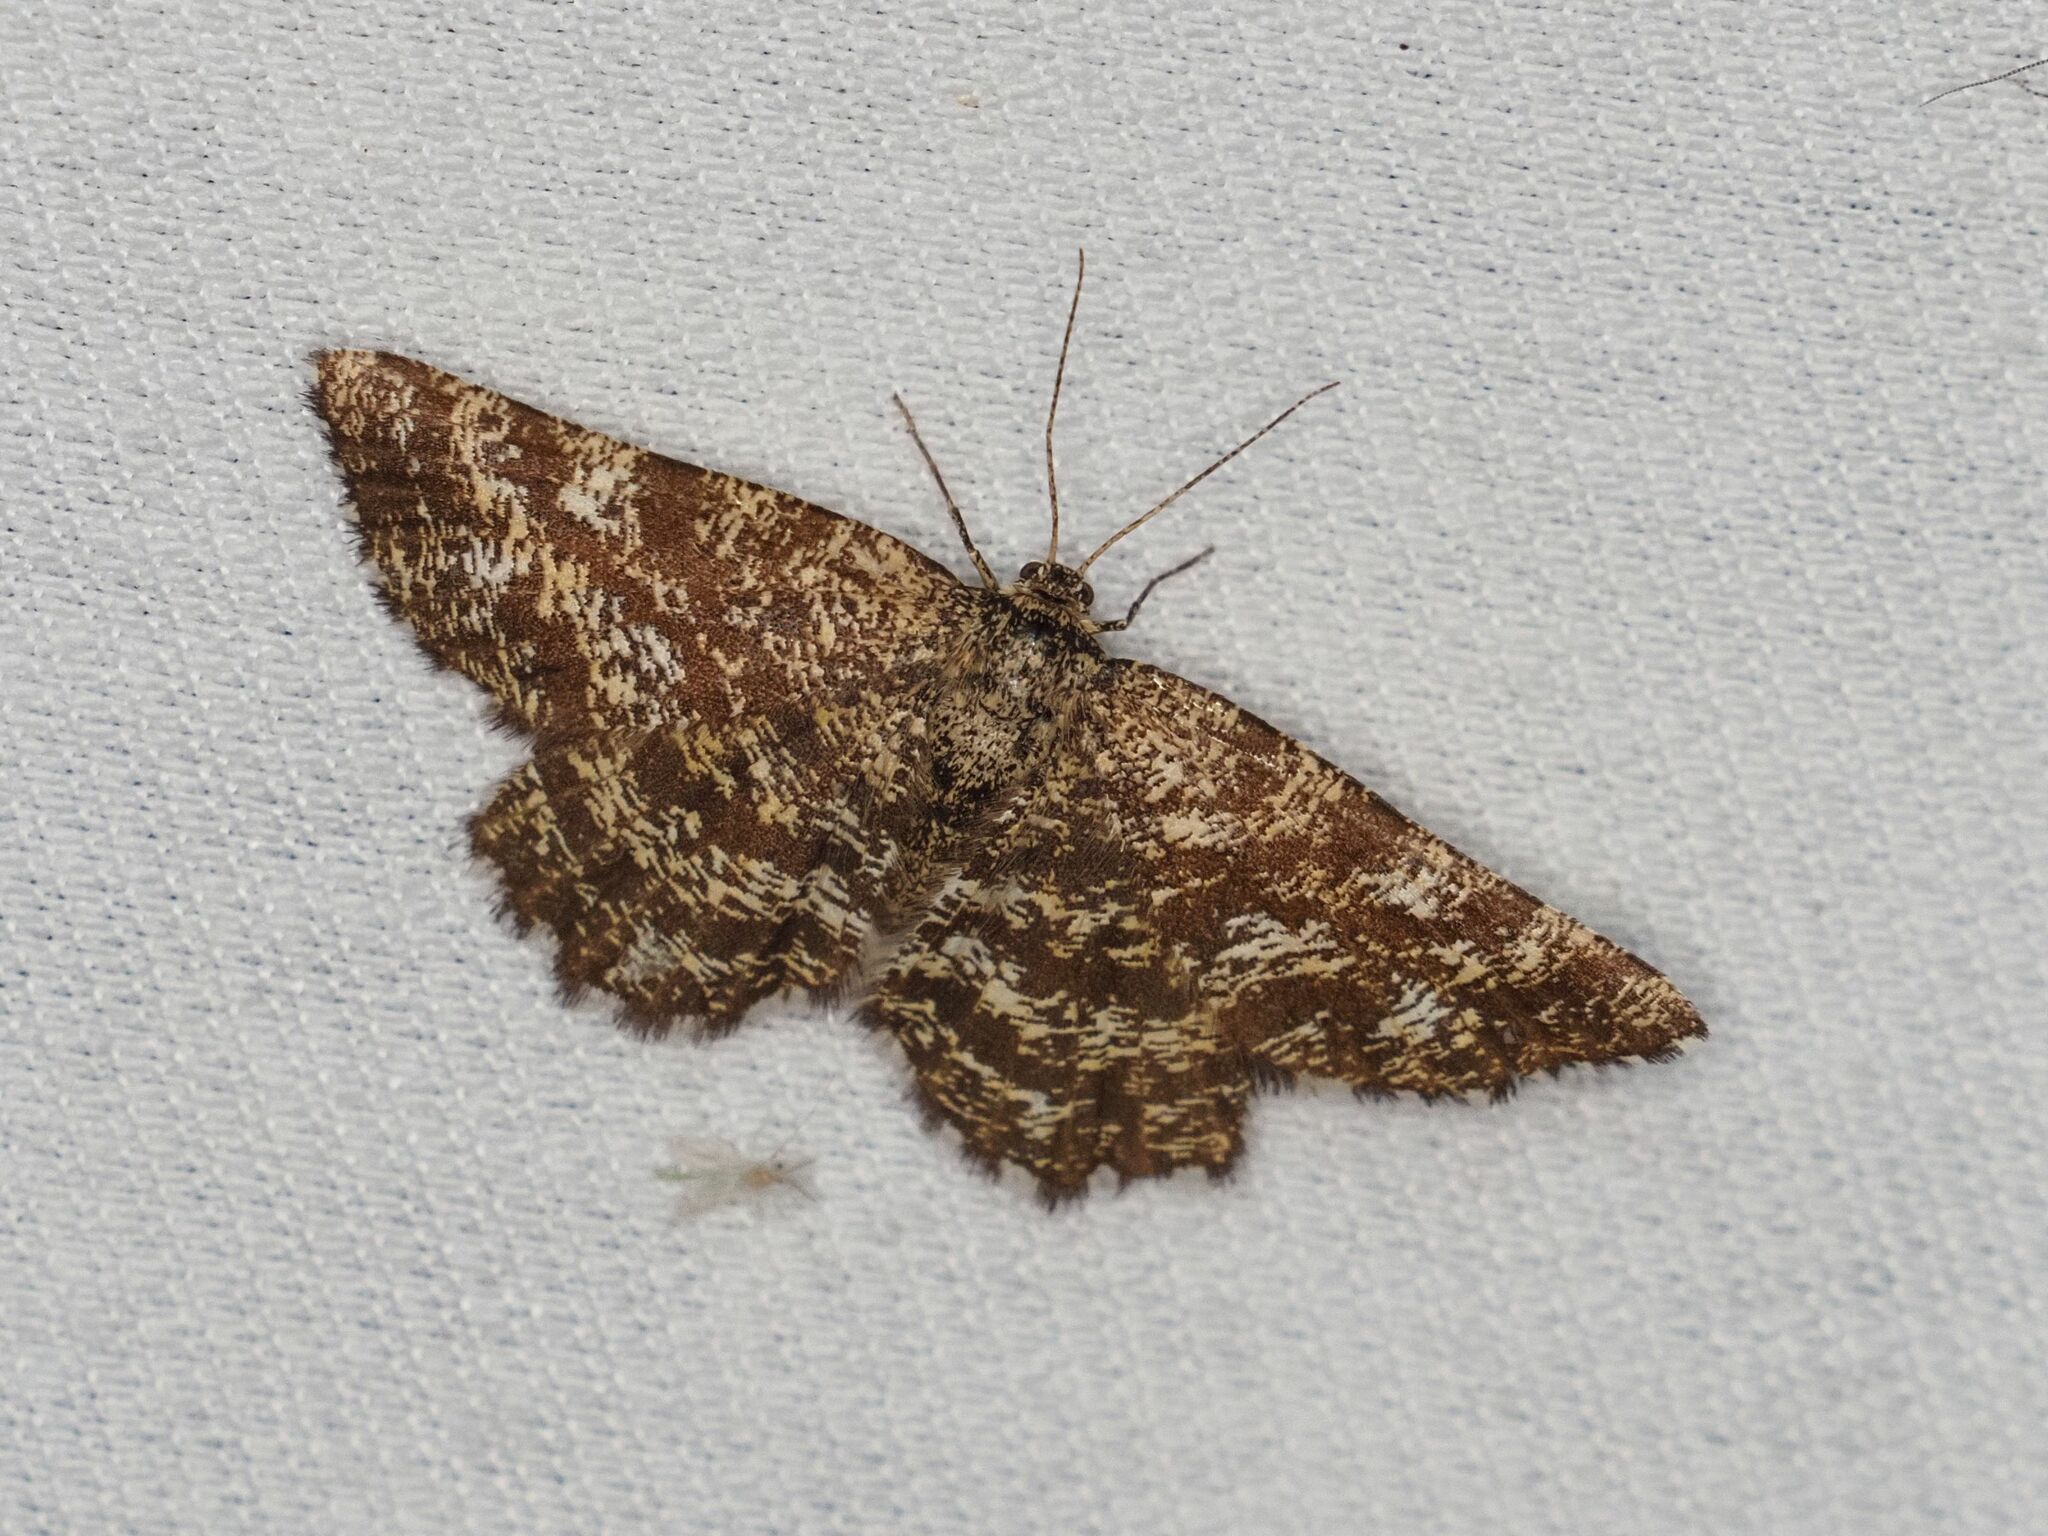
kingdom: Animalia
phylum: Arthropoda
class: Insecta
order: Lepidoptera
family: Geometridae
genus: Ematurga
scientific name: Ematurga atomaria
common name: Common heath
